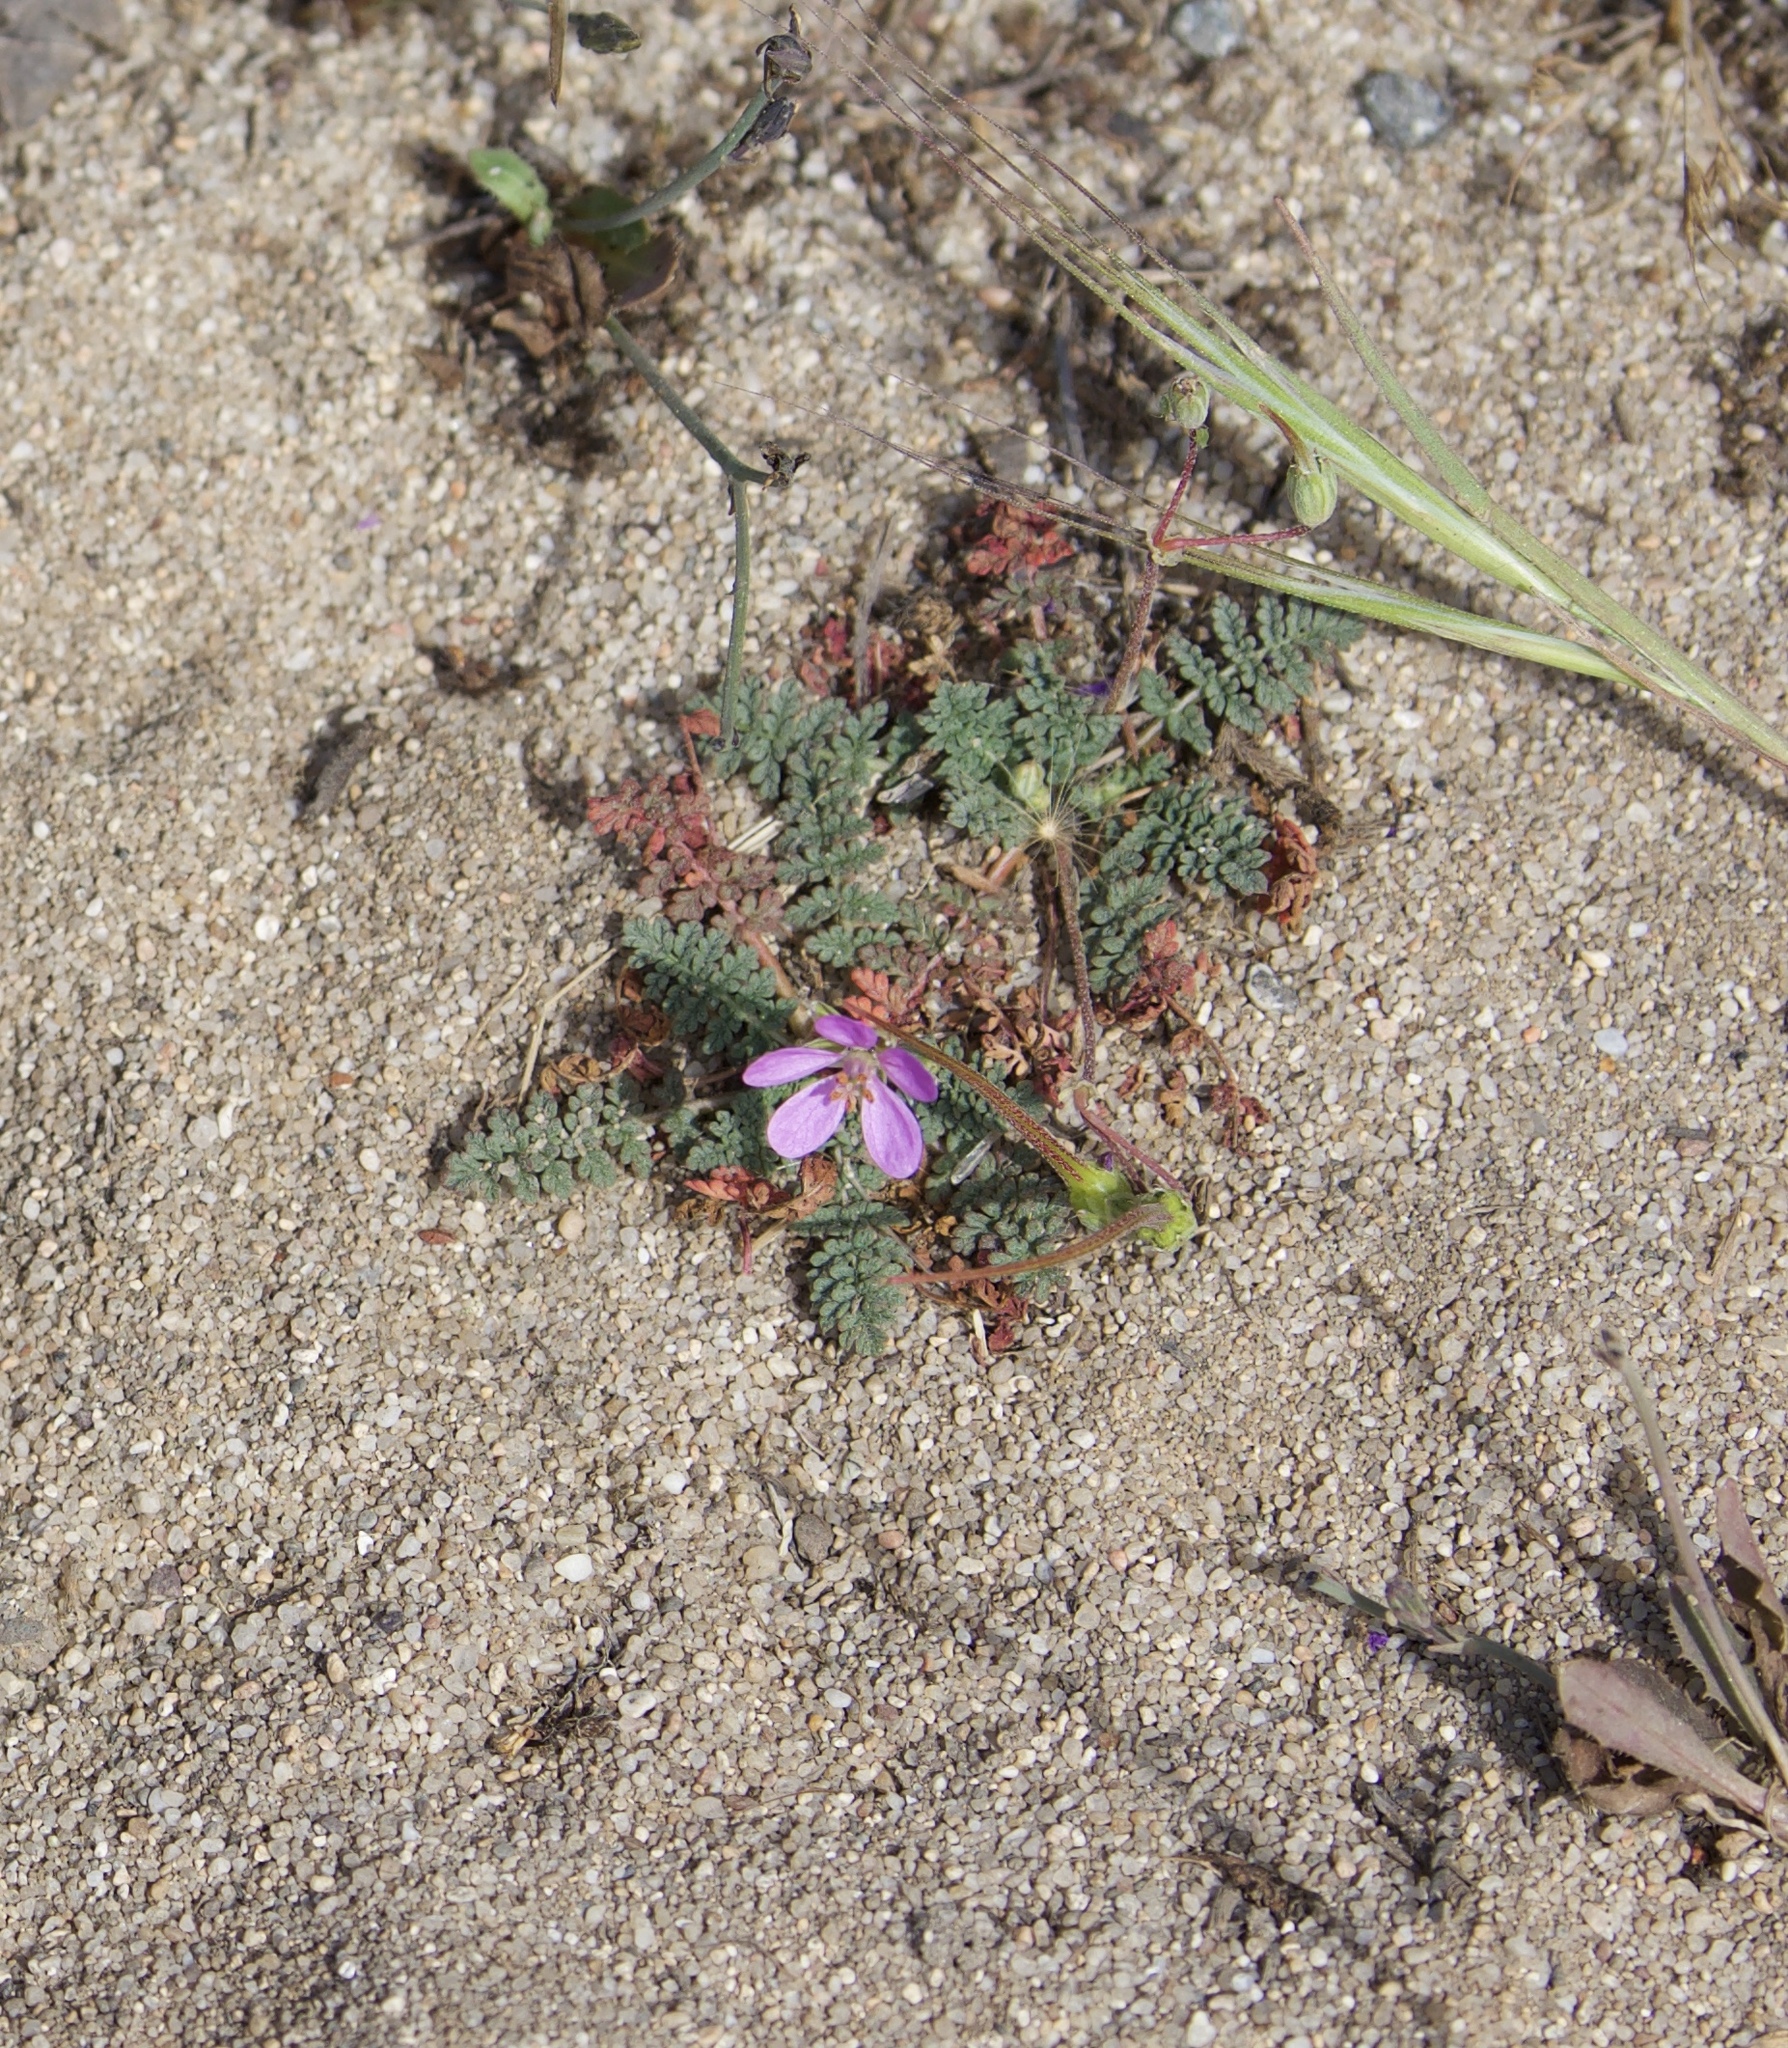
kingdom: Plantae
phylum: Tracheophyta
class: Magnoliopsida
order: Geraniales
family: Geraniaceae
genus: Erodium
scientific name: Erodium cicutarium
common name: Common stork's-bill
